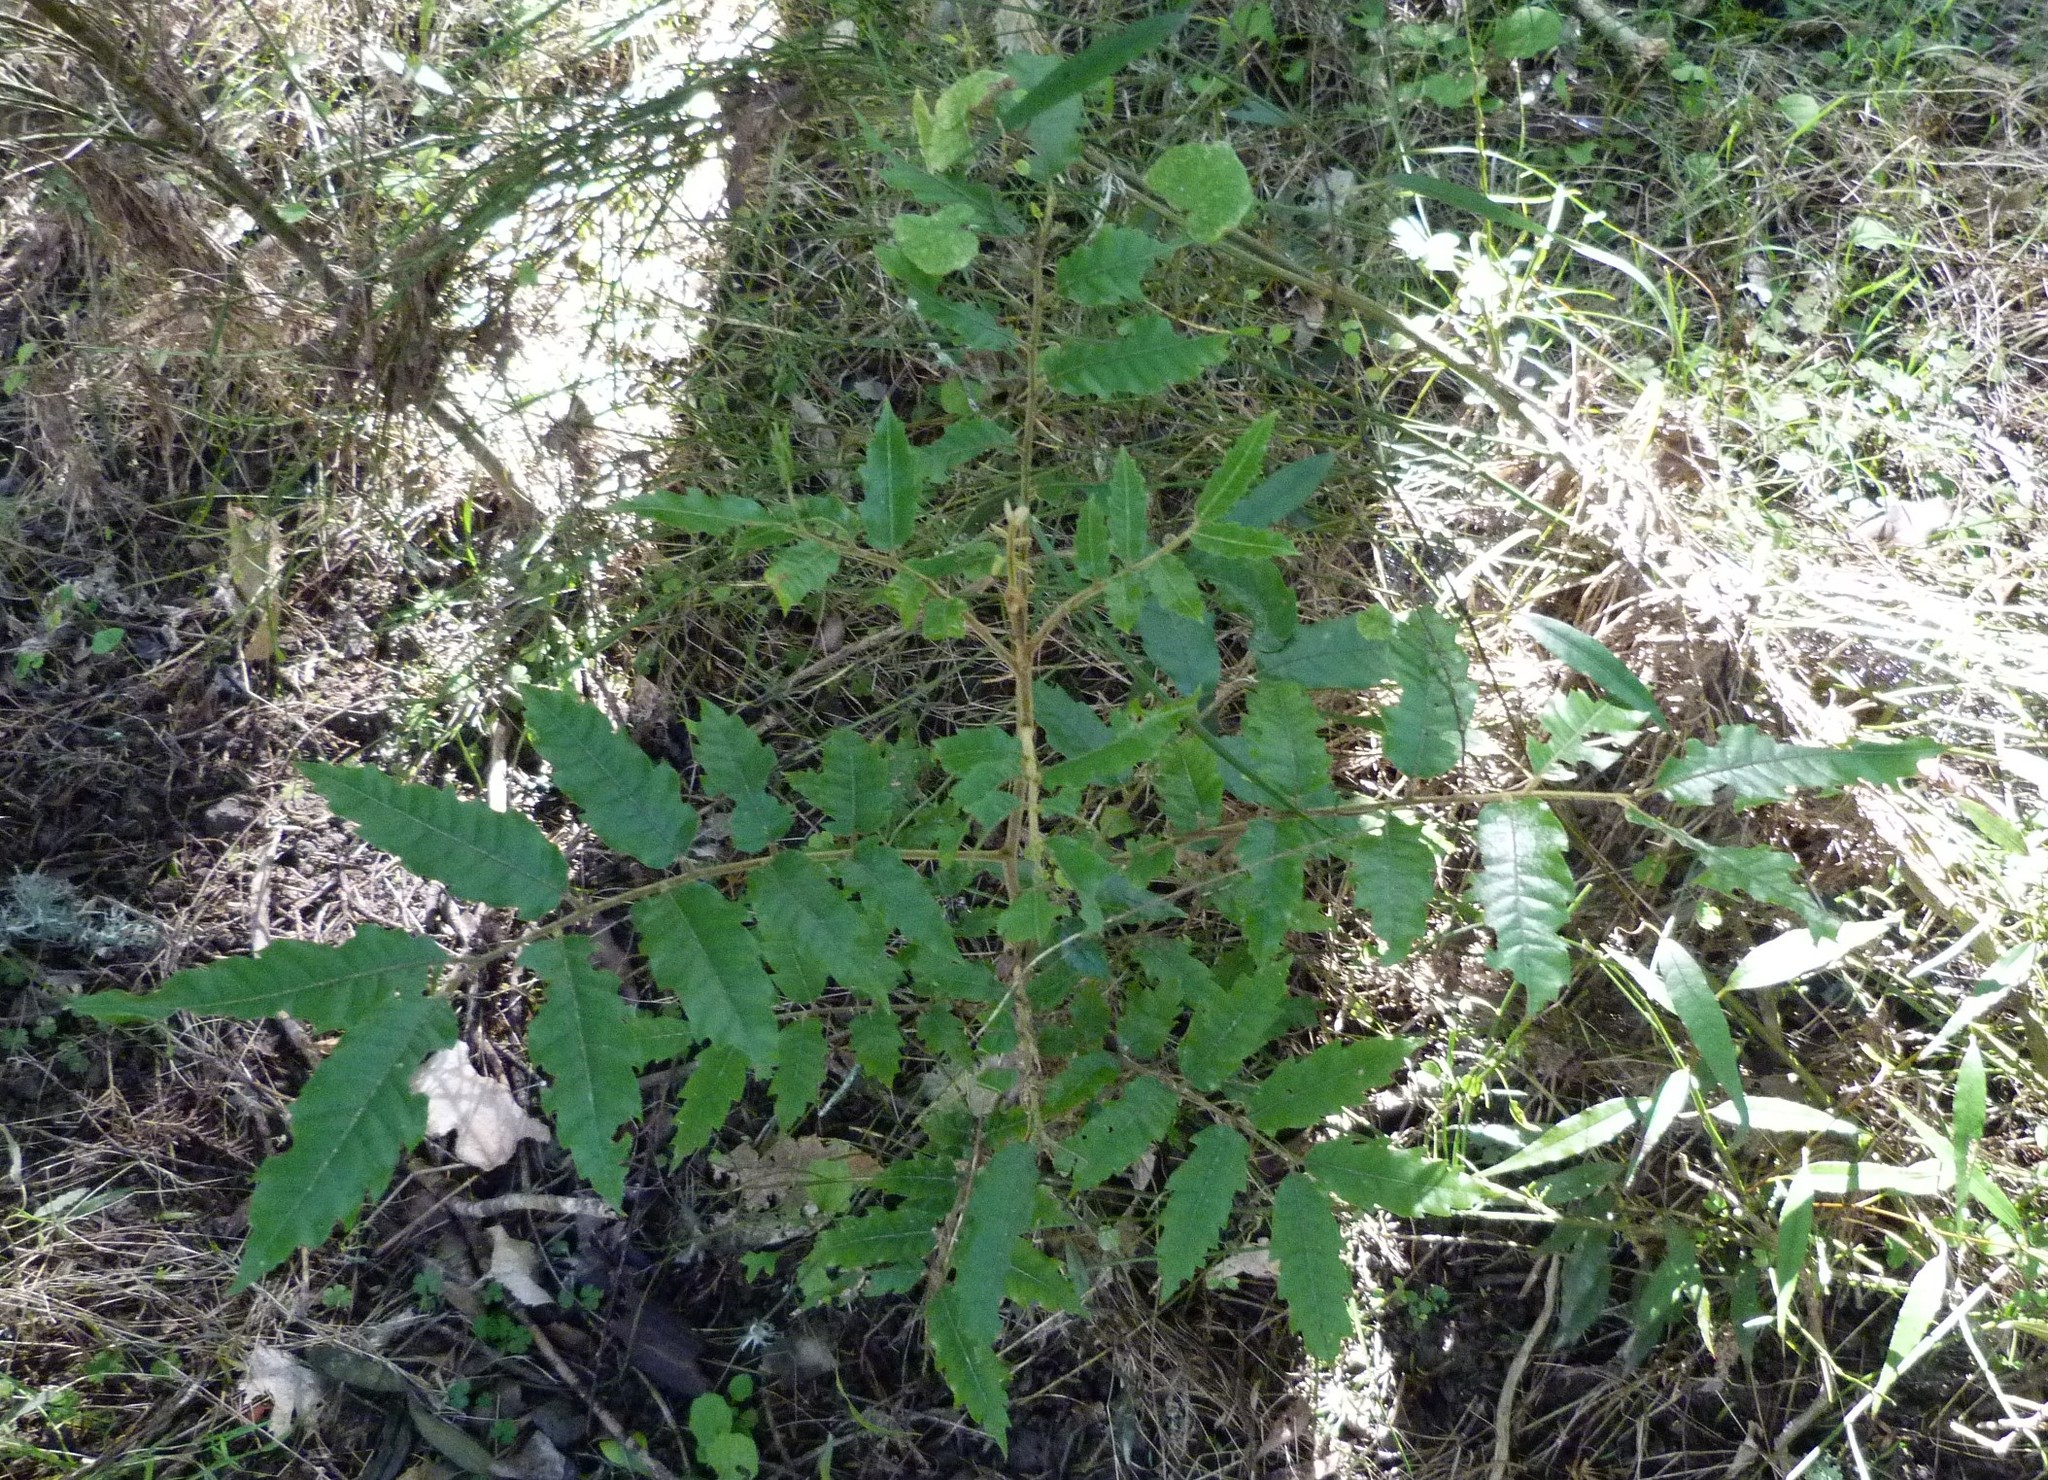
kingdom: Plantae
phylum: Tracheophyta
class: Magnoliopsida
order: Sapindales
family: Sapindaceae
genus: Alectryon
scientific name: Alectryon excelsus
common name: Three kings titoki
